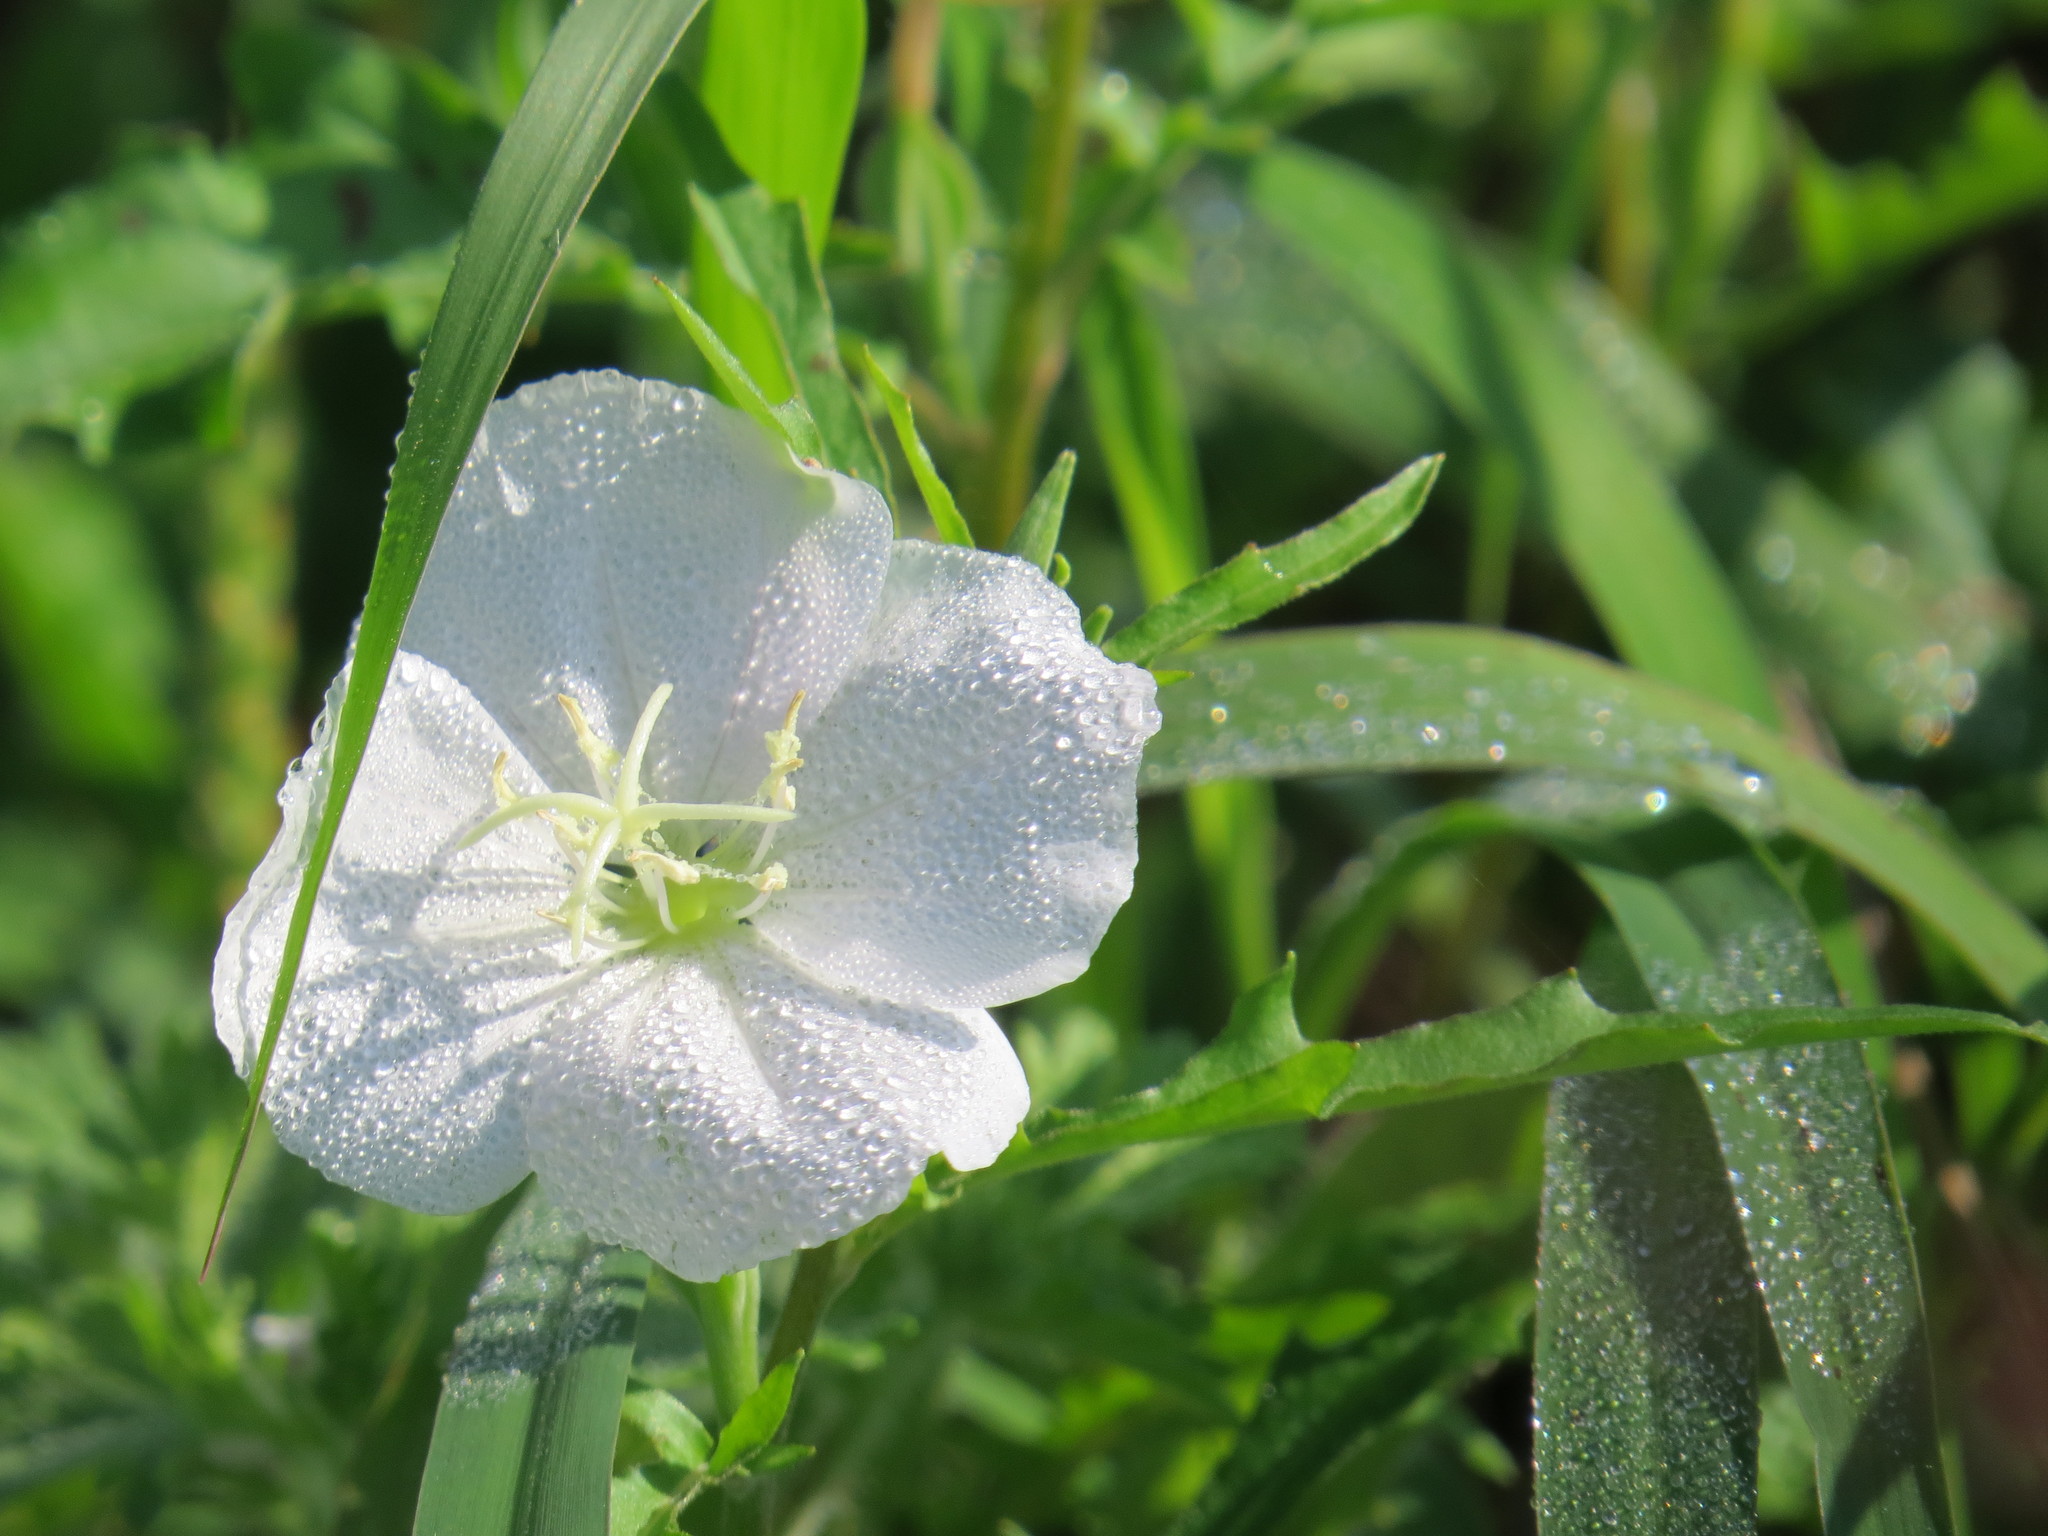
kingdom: Plantae
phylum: Tracheophyta
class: Magnoliopsida
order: Myrtales
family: Onagraceae
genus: Oenothera
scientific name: Oenothera tetraptera
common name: Four-wing evening-primrose
